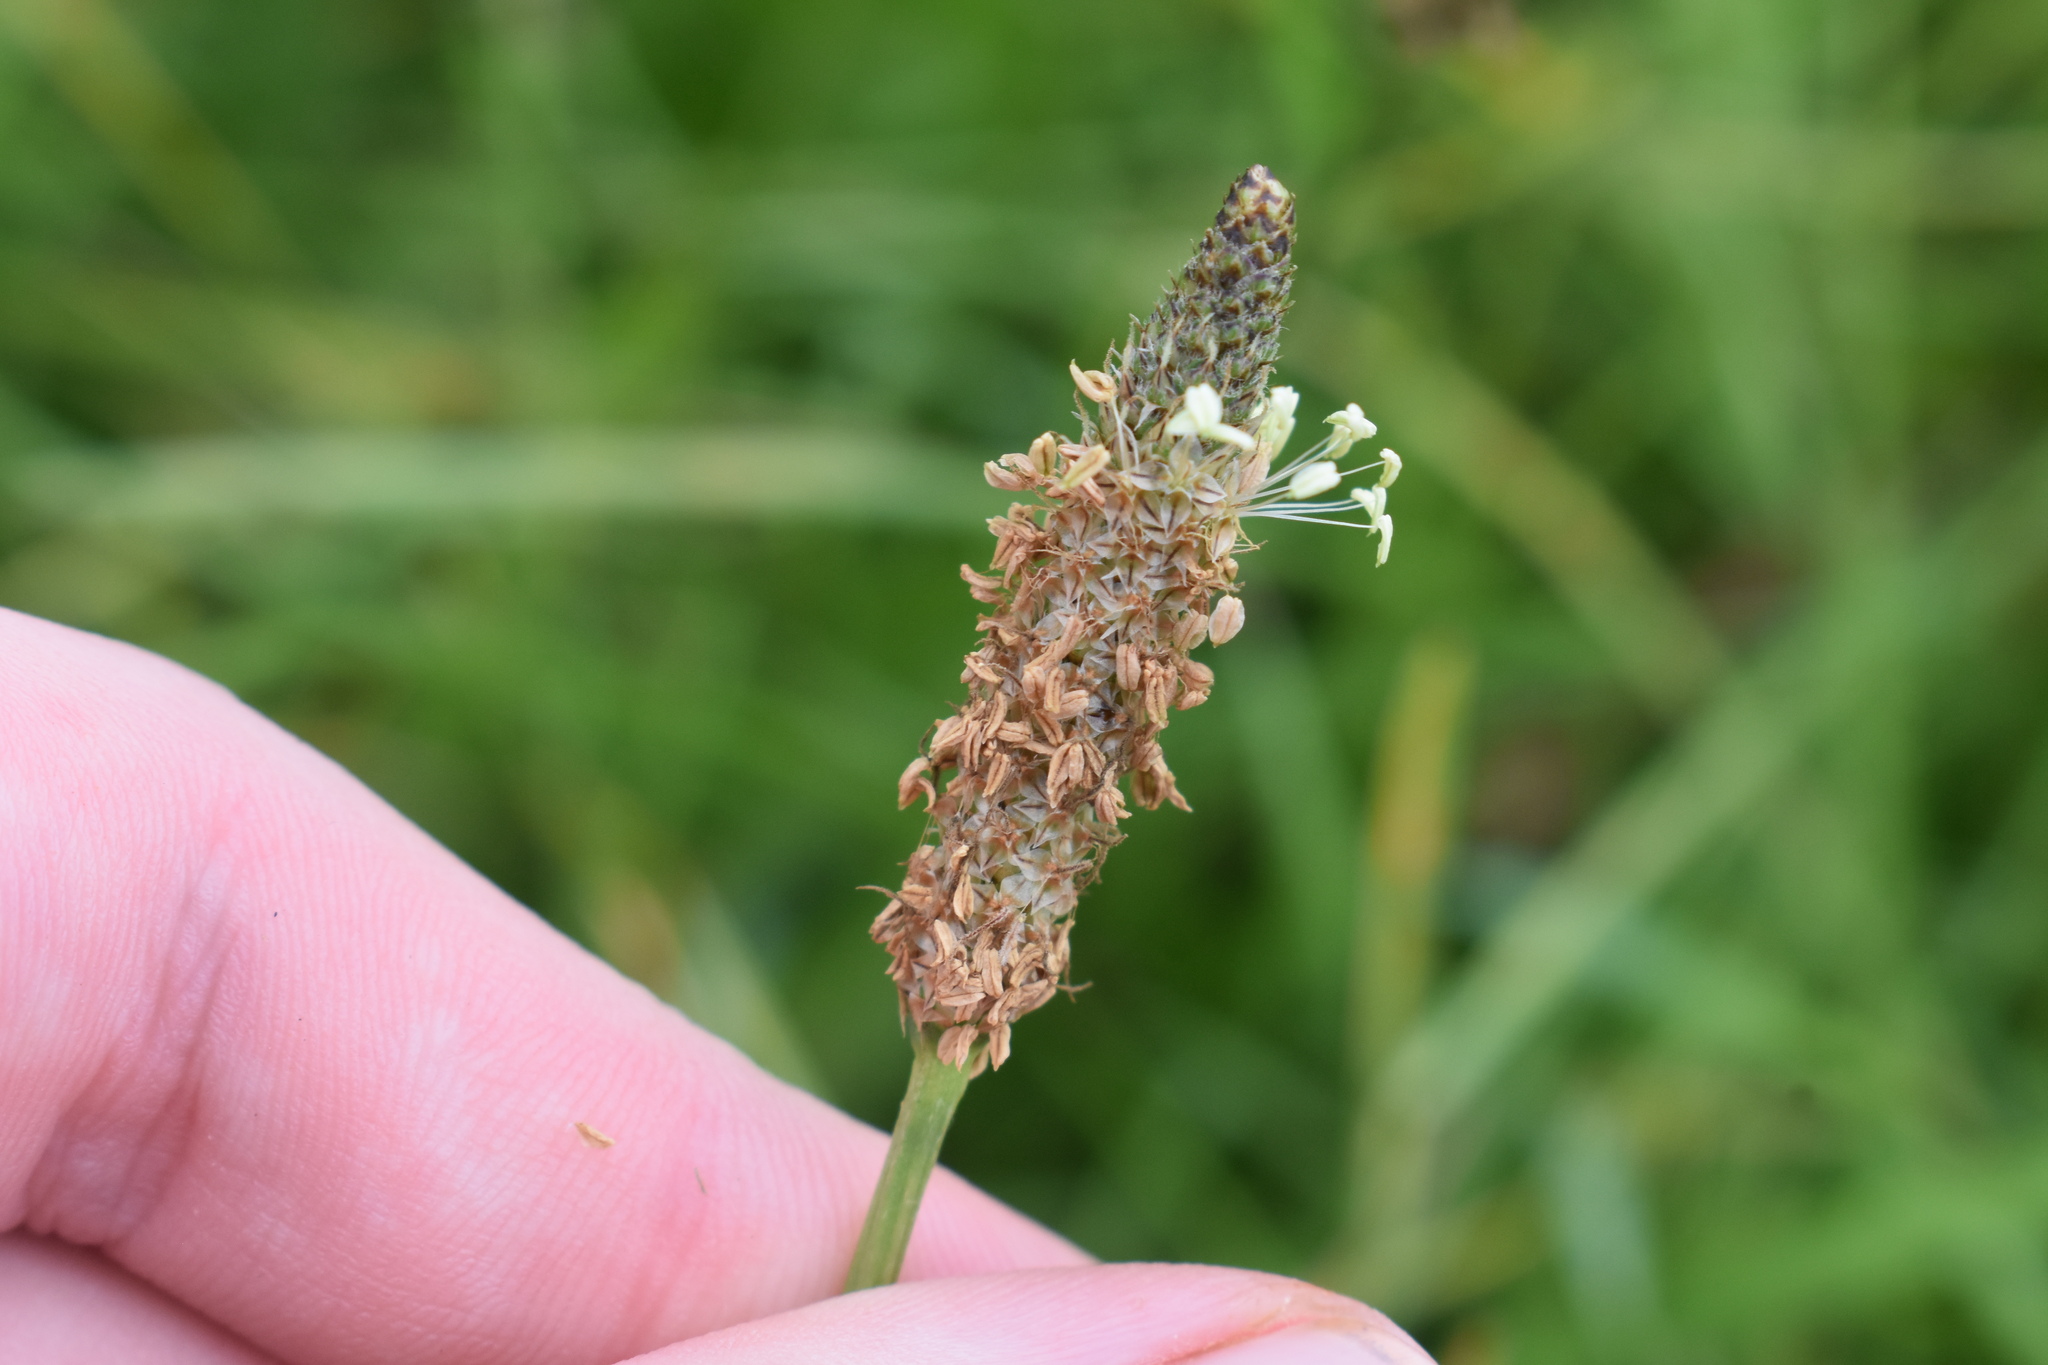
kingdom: Plantae
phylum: Tracheophyta
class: Magnoliopsida
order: Lamiales
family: Plantaginaceae
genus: Plantago
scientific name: Plantago lanceolata
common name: Ribwort plantain
